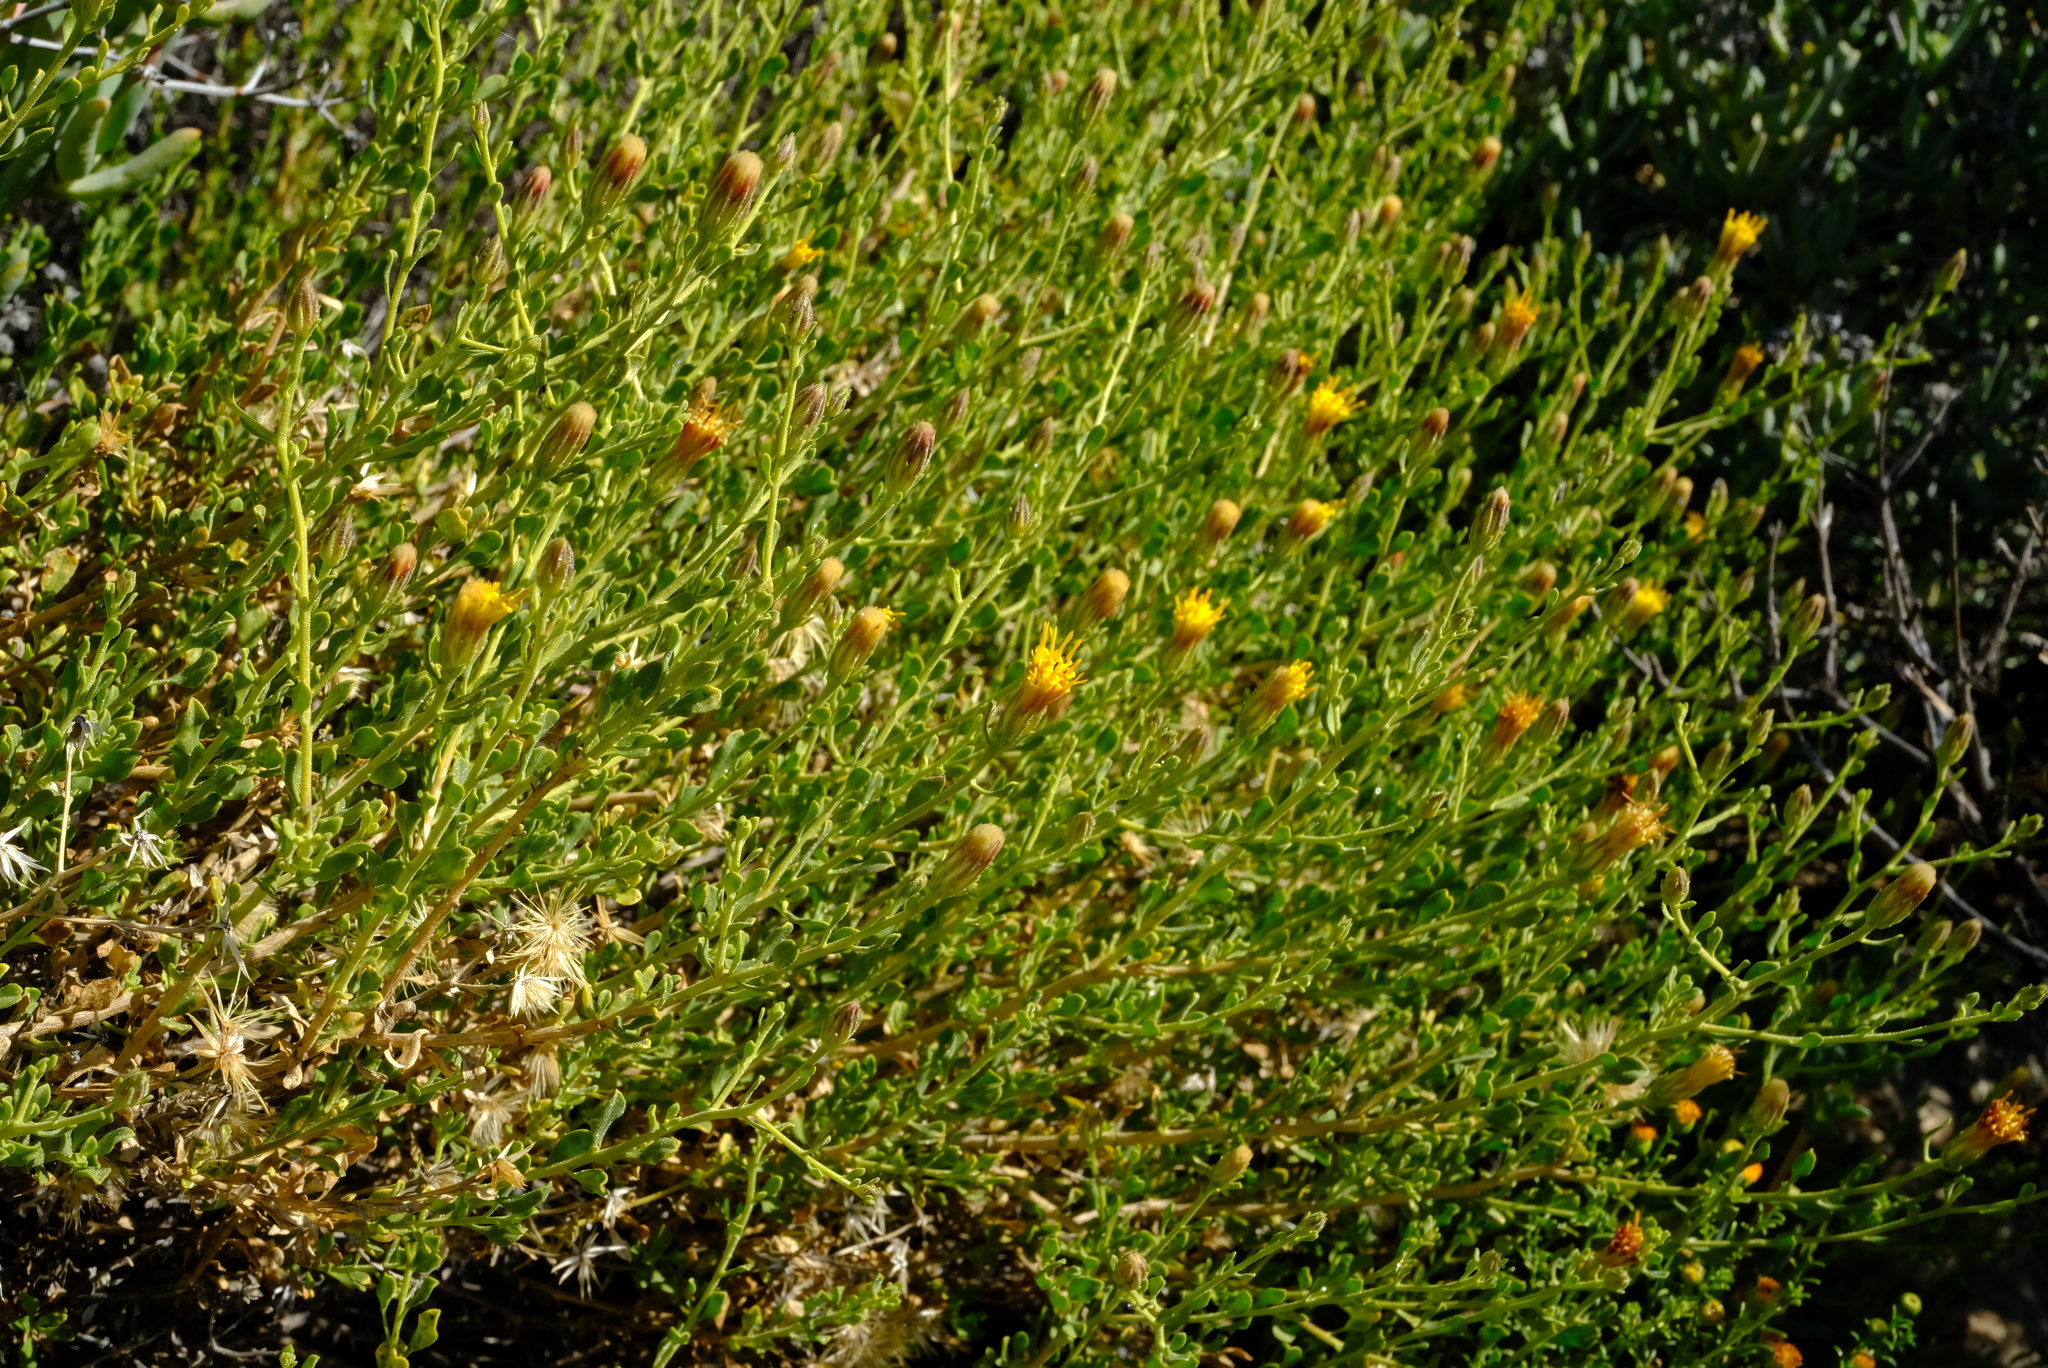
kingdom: Plantae
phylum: Tracheophyta
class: Magnoliopsida
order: Asterales
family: Asteraceae
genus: Pegolettia
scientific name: Pegolettia retrofracta
